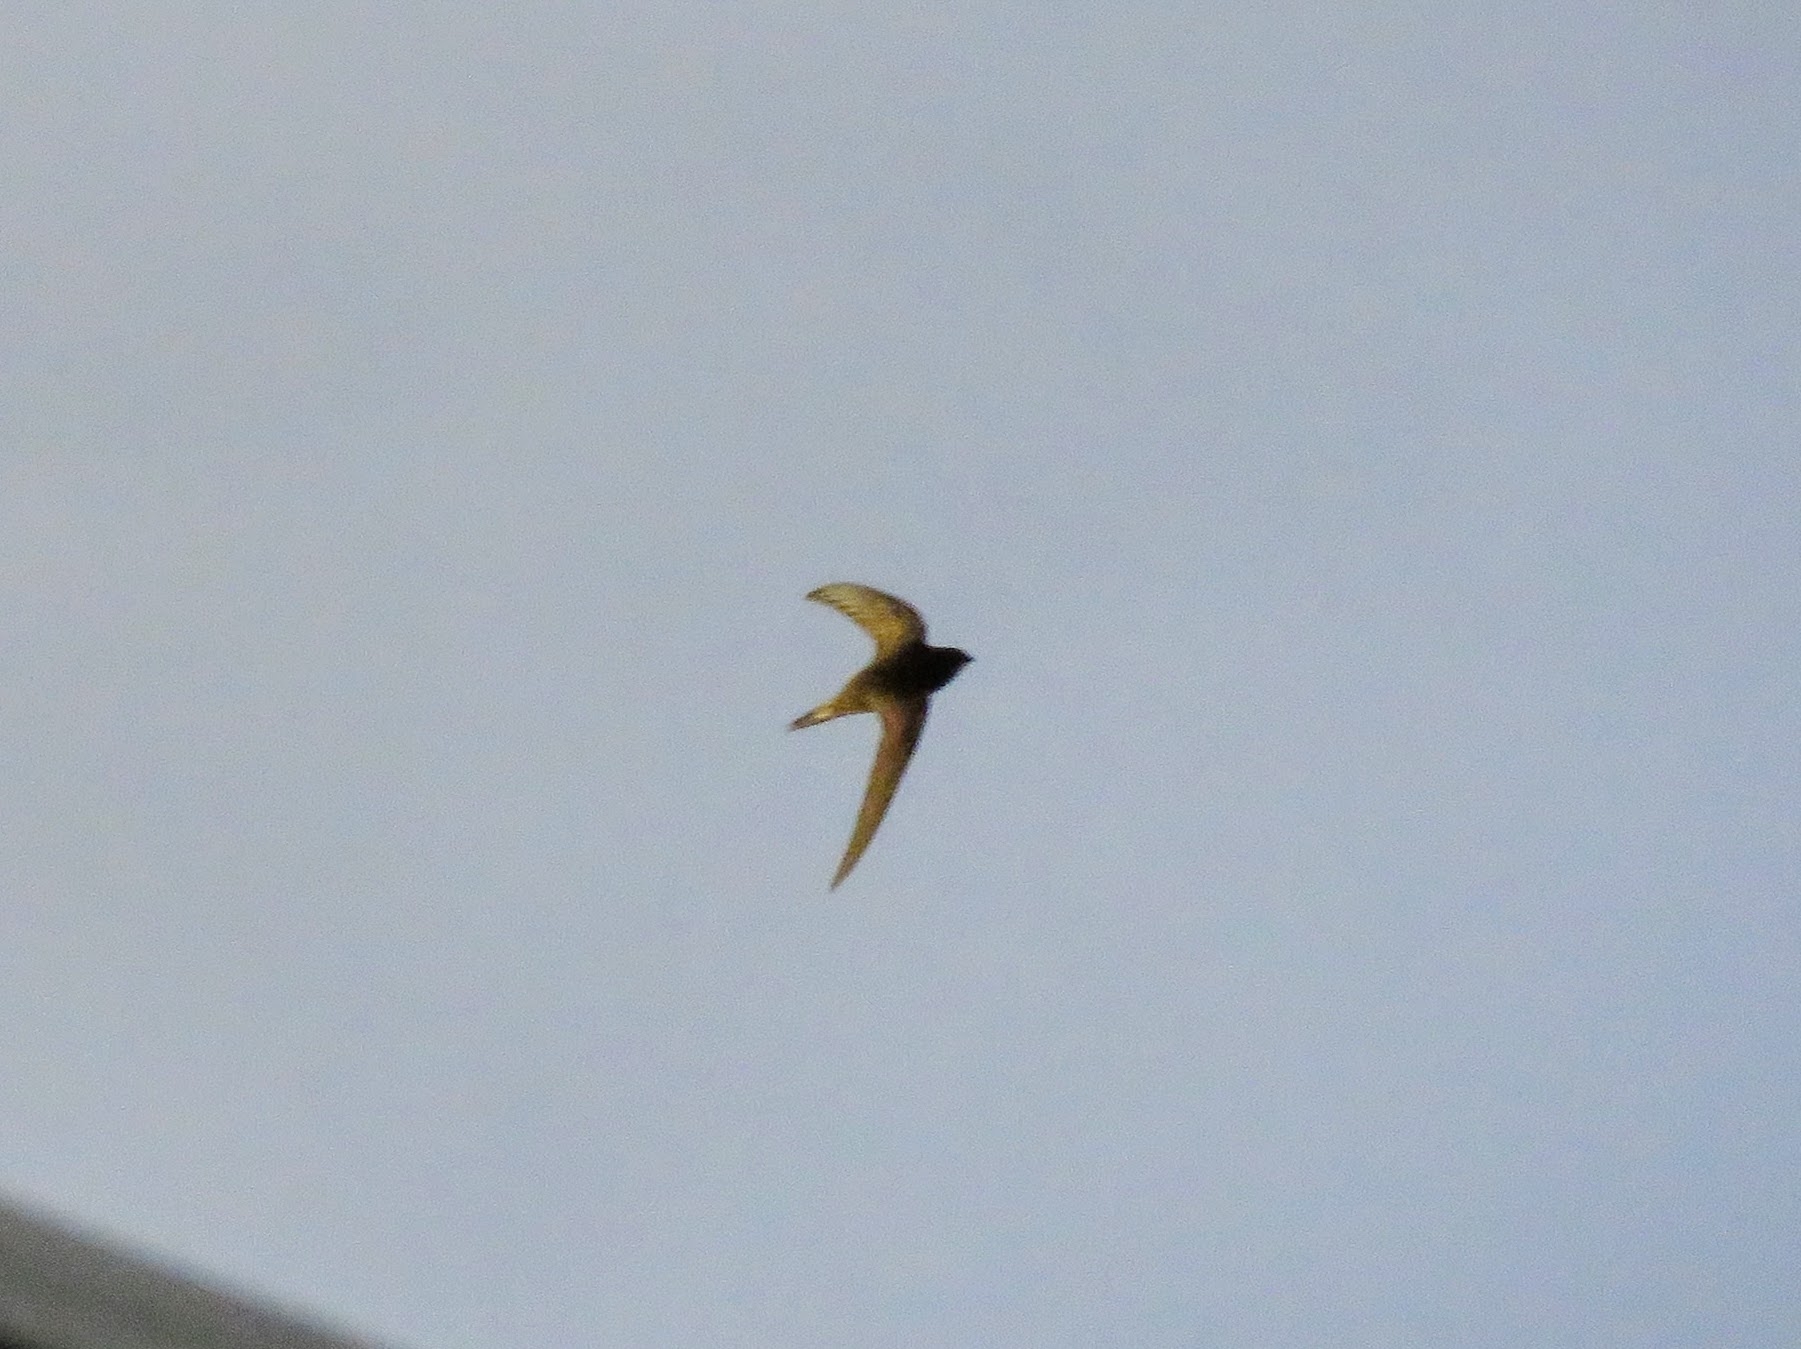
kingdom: Animalia
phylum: Chordata
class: Aves
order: Apodiformes
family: Apodidae
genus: Apus
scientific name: Apus pallidus
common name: Pallid swift
